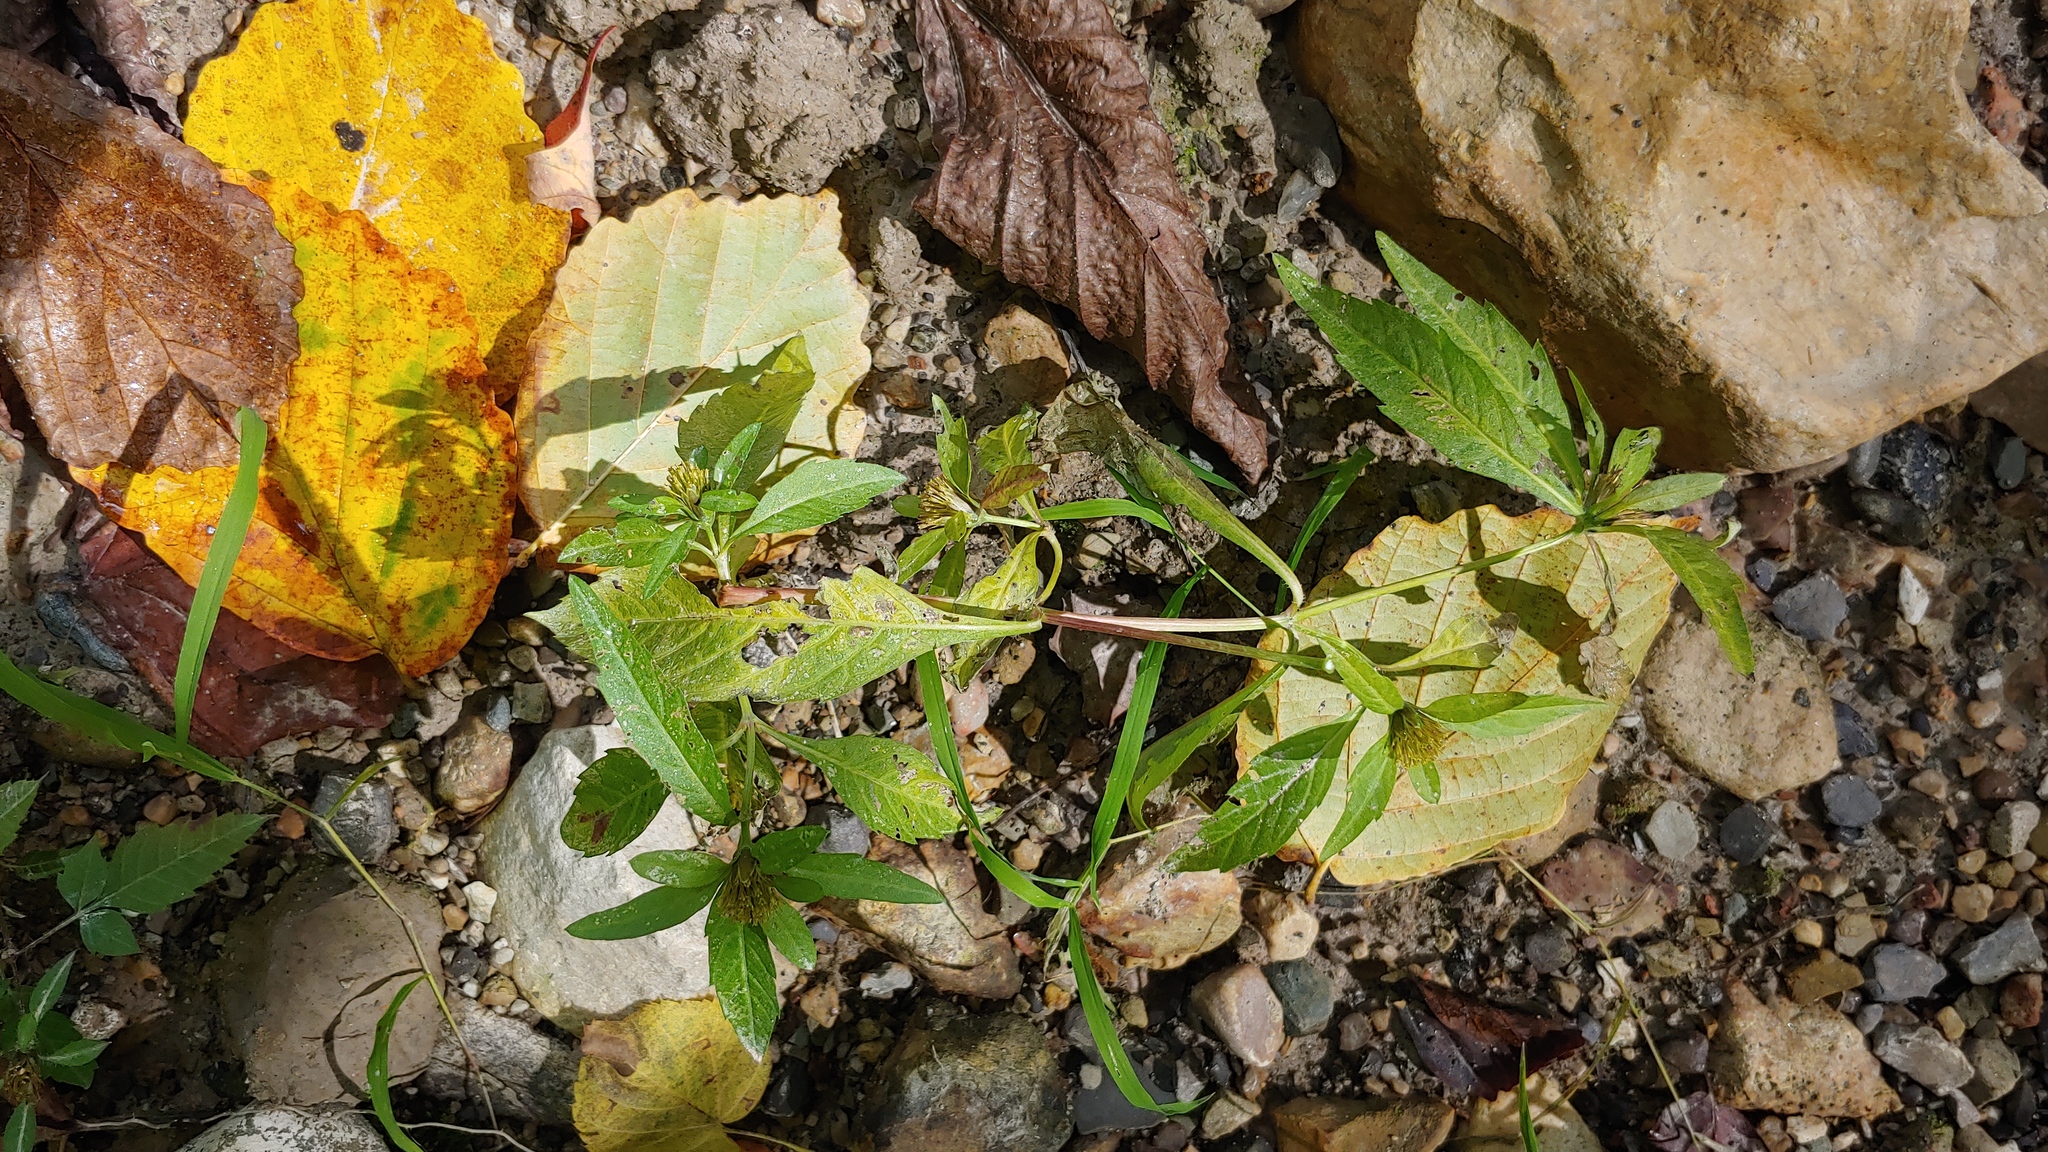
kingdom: Plantae
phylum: Tracheophyta
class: Magnoliopsida
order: Asterales
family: Asteraceae
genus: Bidens
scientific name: Bidens tripartita
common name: Trifid bur-marigold
